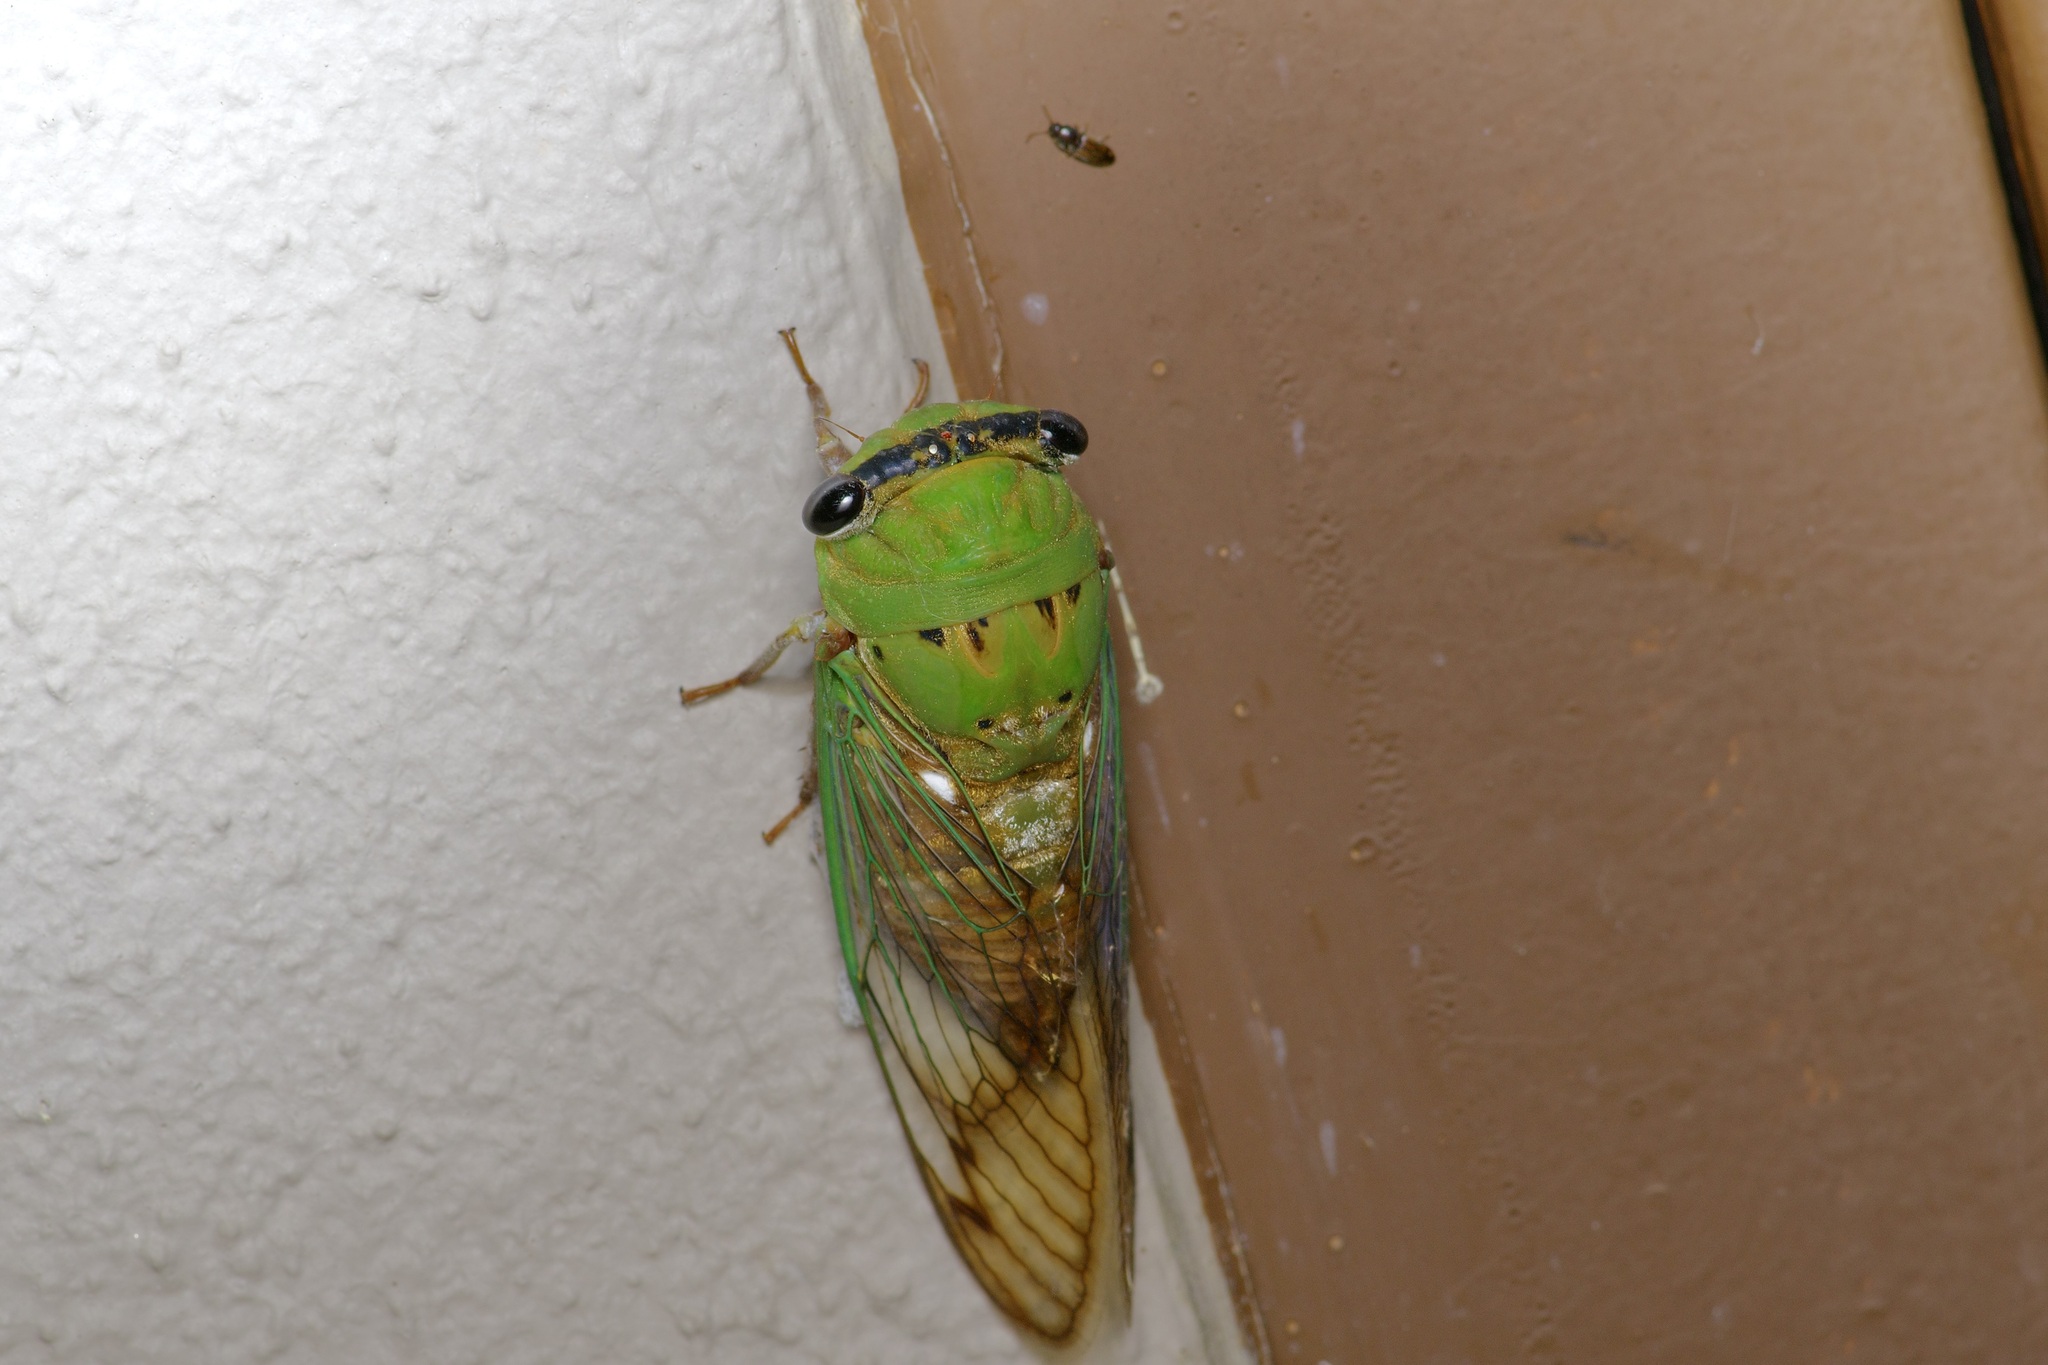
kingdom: Animalia
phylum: Arthropoda
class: Insecta
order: Hemiptera
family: Cicadidae
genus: Neotibicen
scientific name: Neotibicen superbus
